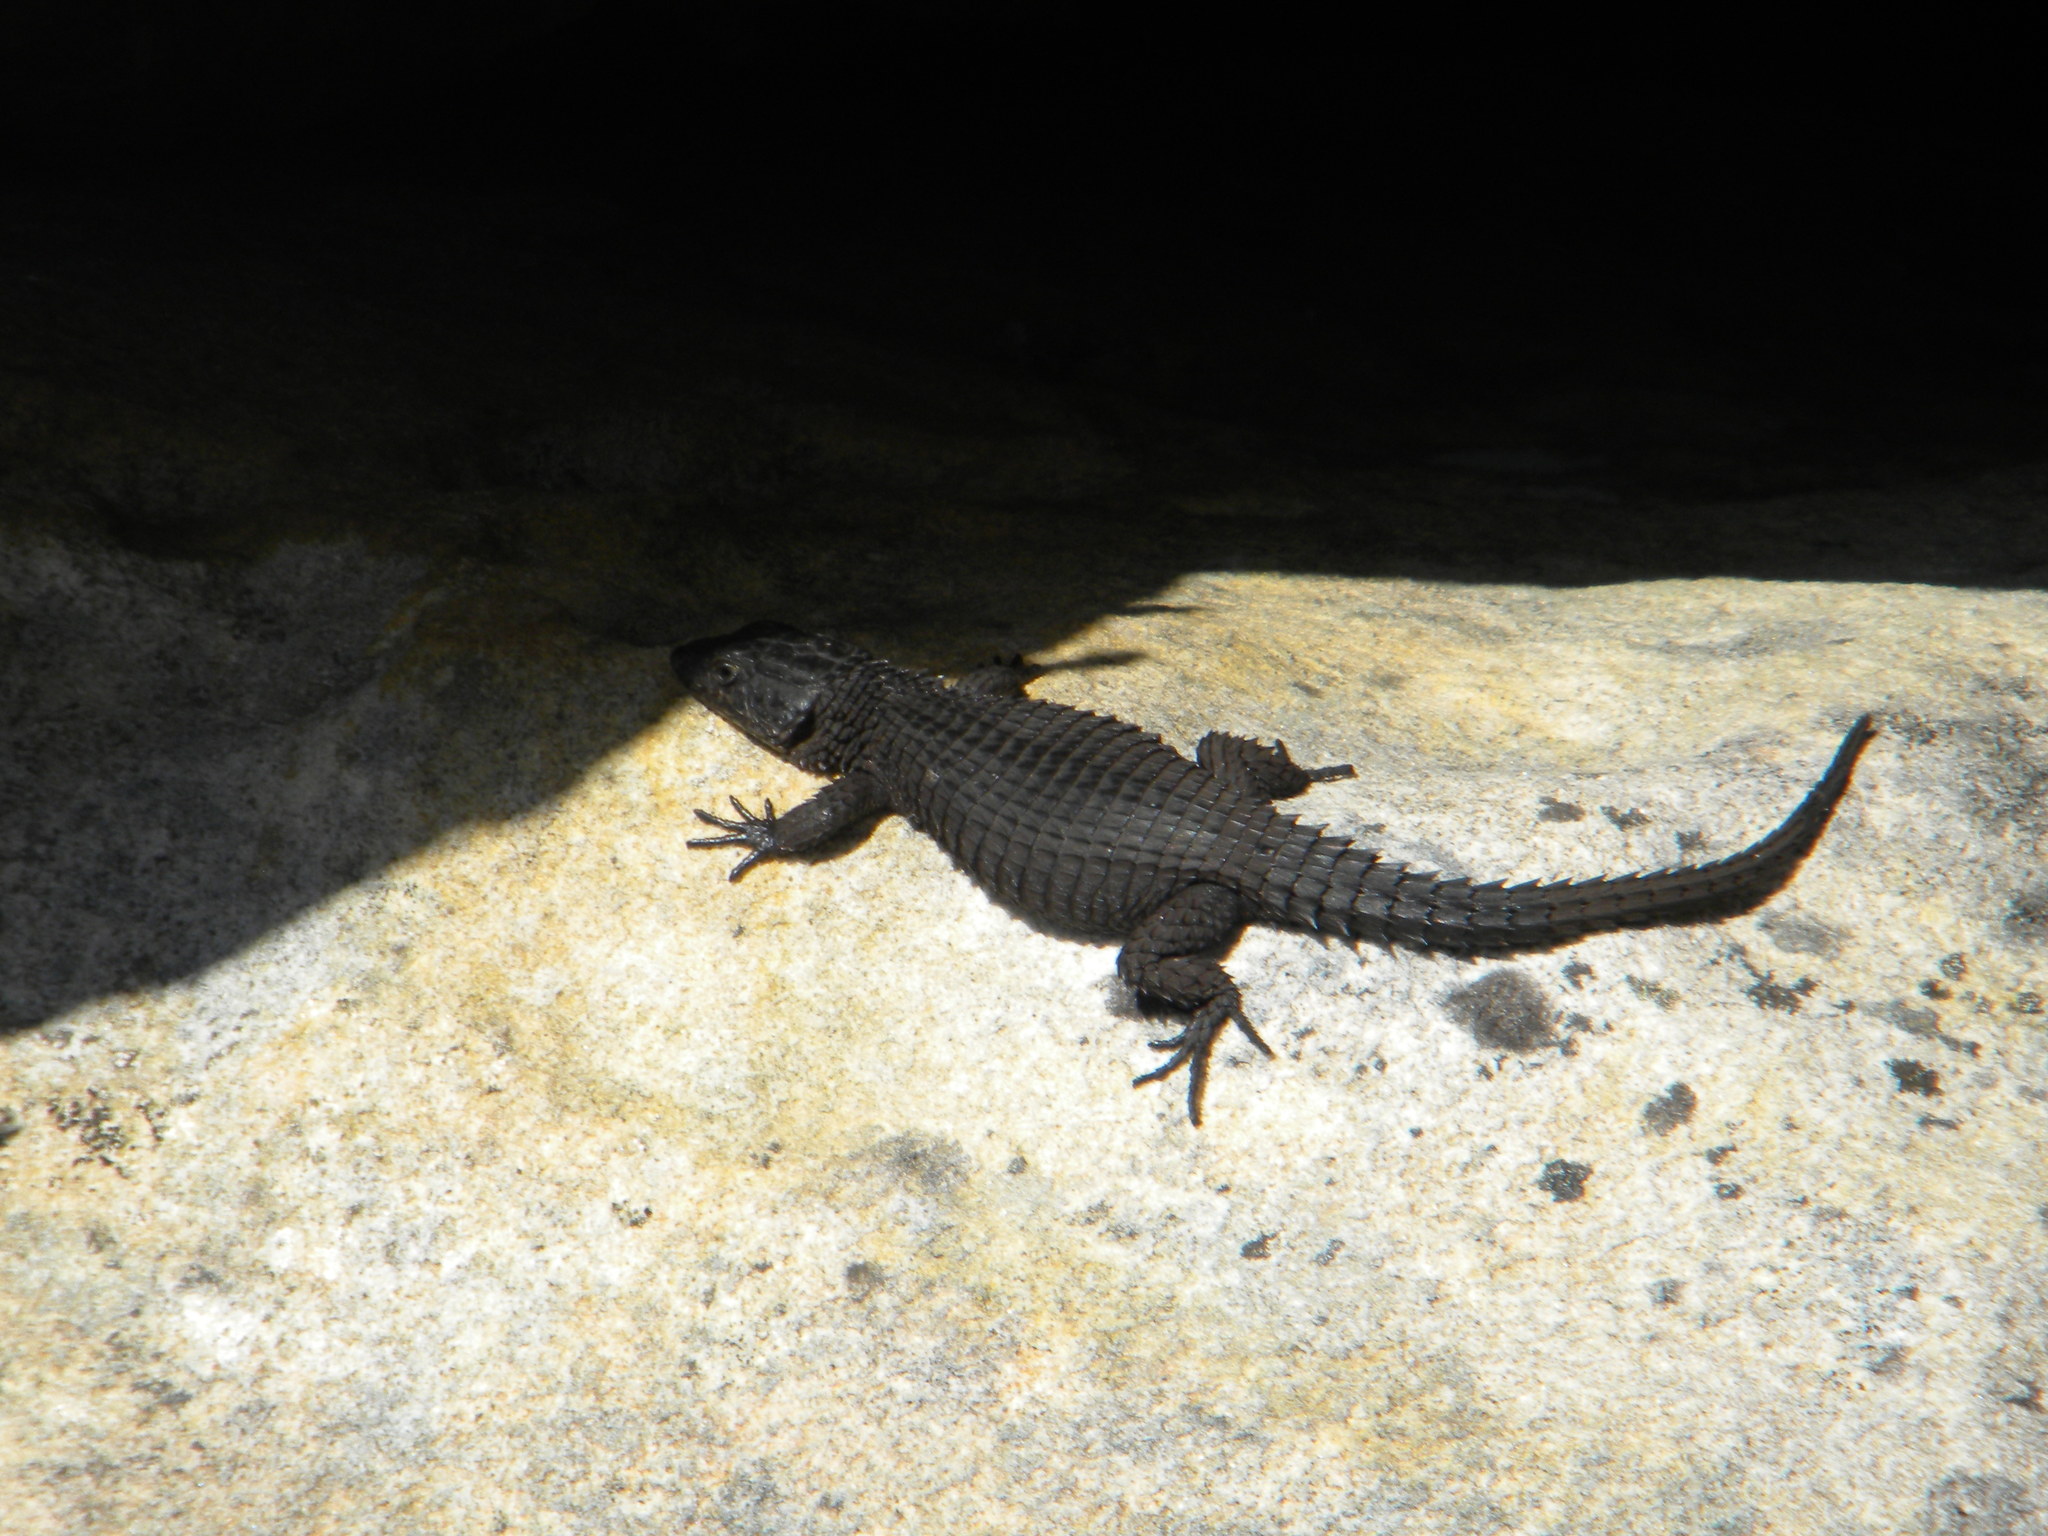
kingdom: Animalia
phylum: Chordata
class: Squamata
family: Cordylidae
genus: Cordylus
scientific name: Cordylus niger
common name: Black girdled lizard
